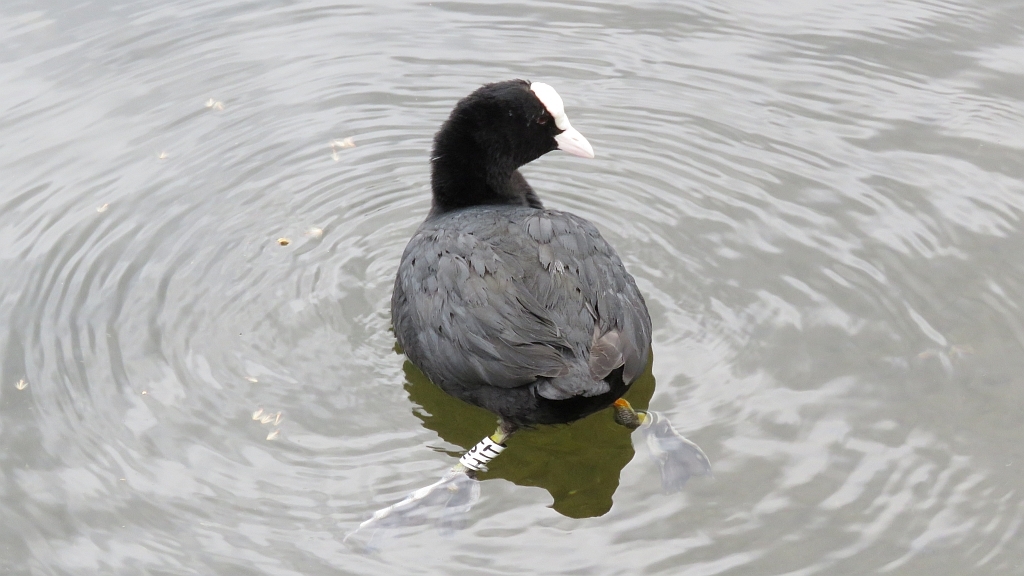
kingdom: Animalia
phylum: Chordata
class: Aves
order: Gruiformes
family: Rallidae
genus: Fulica
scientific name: Fulica atra
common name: Eurasian coot
